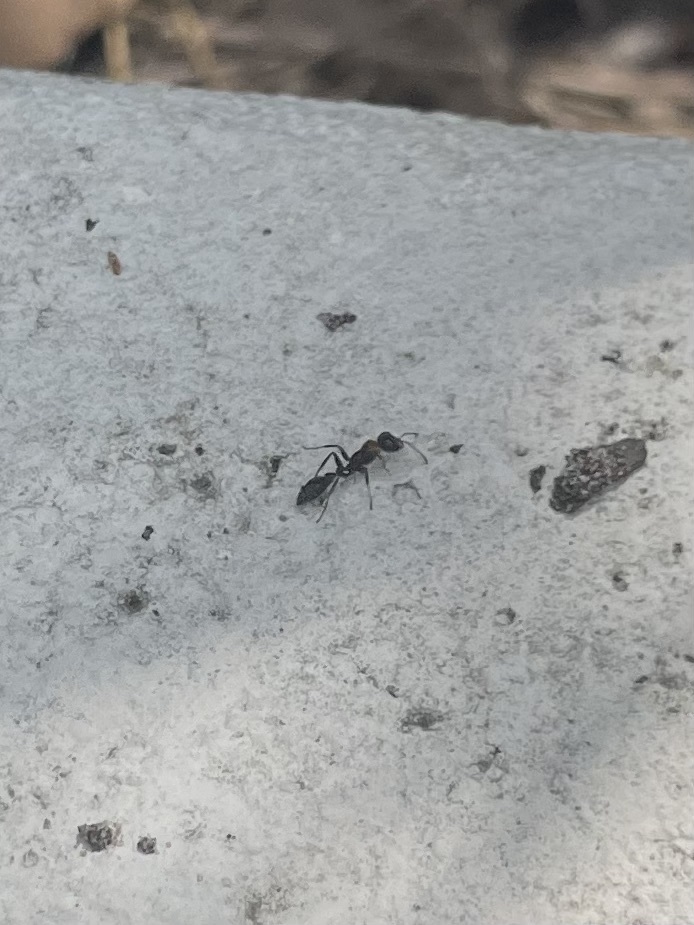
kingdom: Animalia
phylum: Arthropoda
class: Insecta
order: Hymenoptera
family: Formicidae
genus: Pseudomyrmex
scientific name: Pseudomyrmex gracilis
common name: Graceful twig ant
